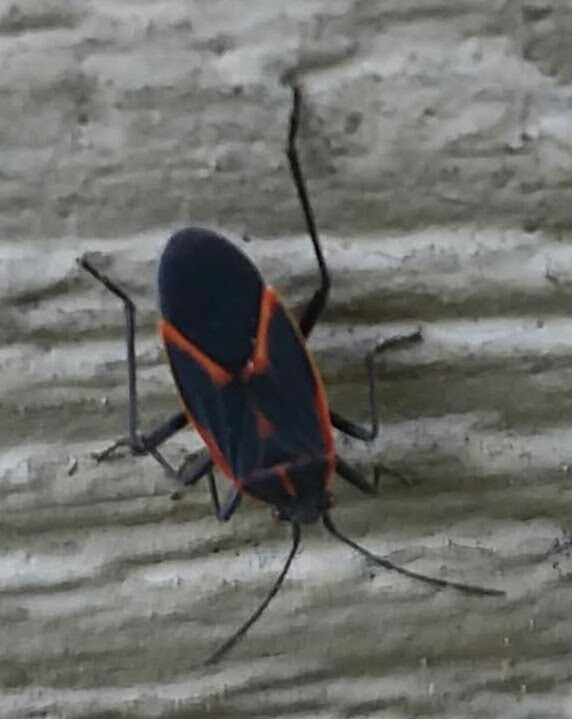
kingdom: Animalia
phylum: Arthropoda
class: Insecta
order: Hemiptera
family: Rhopalidae
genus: Boisea
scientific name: Boisea trivittata
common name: Boxelder bug
